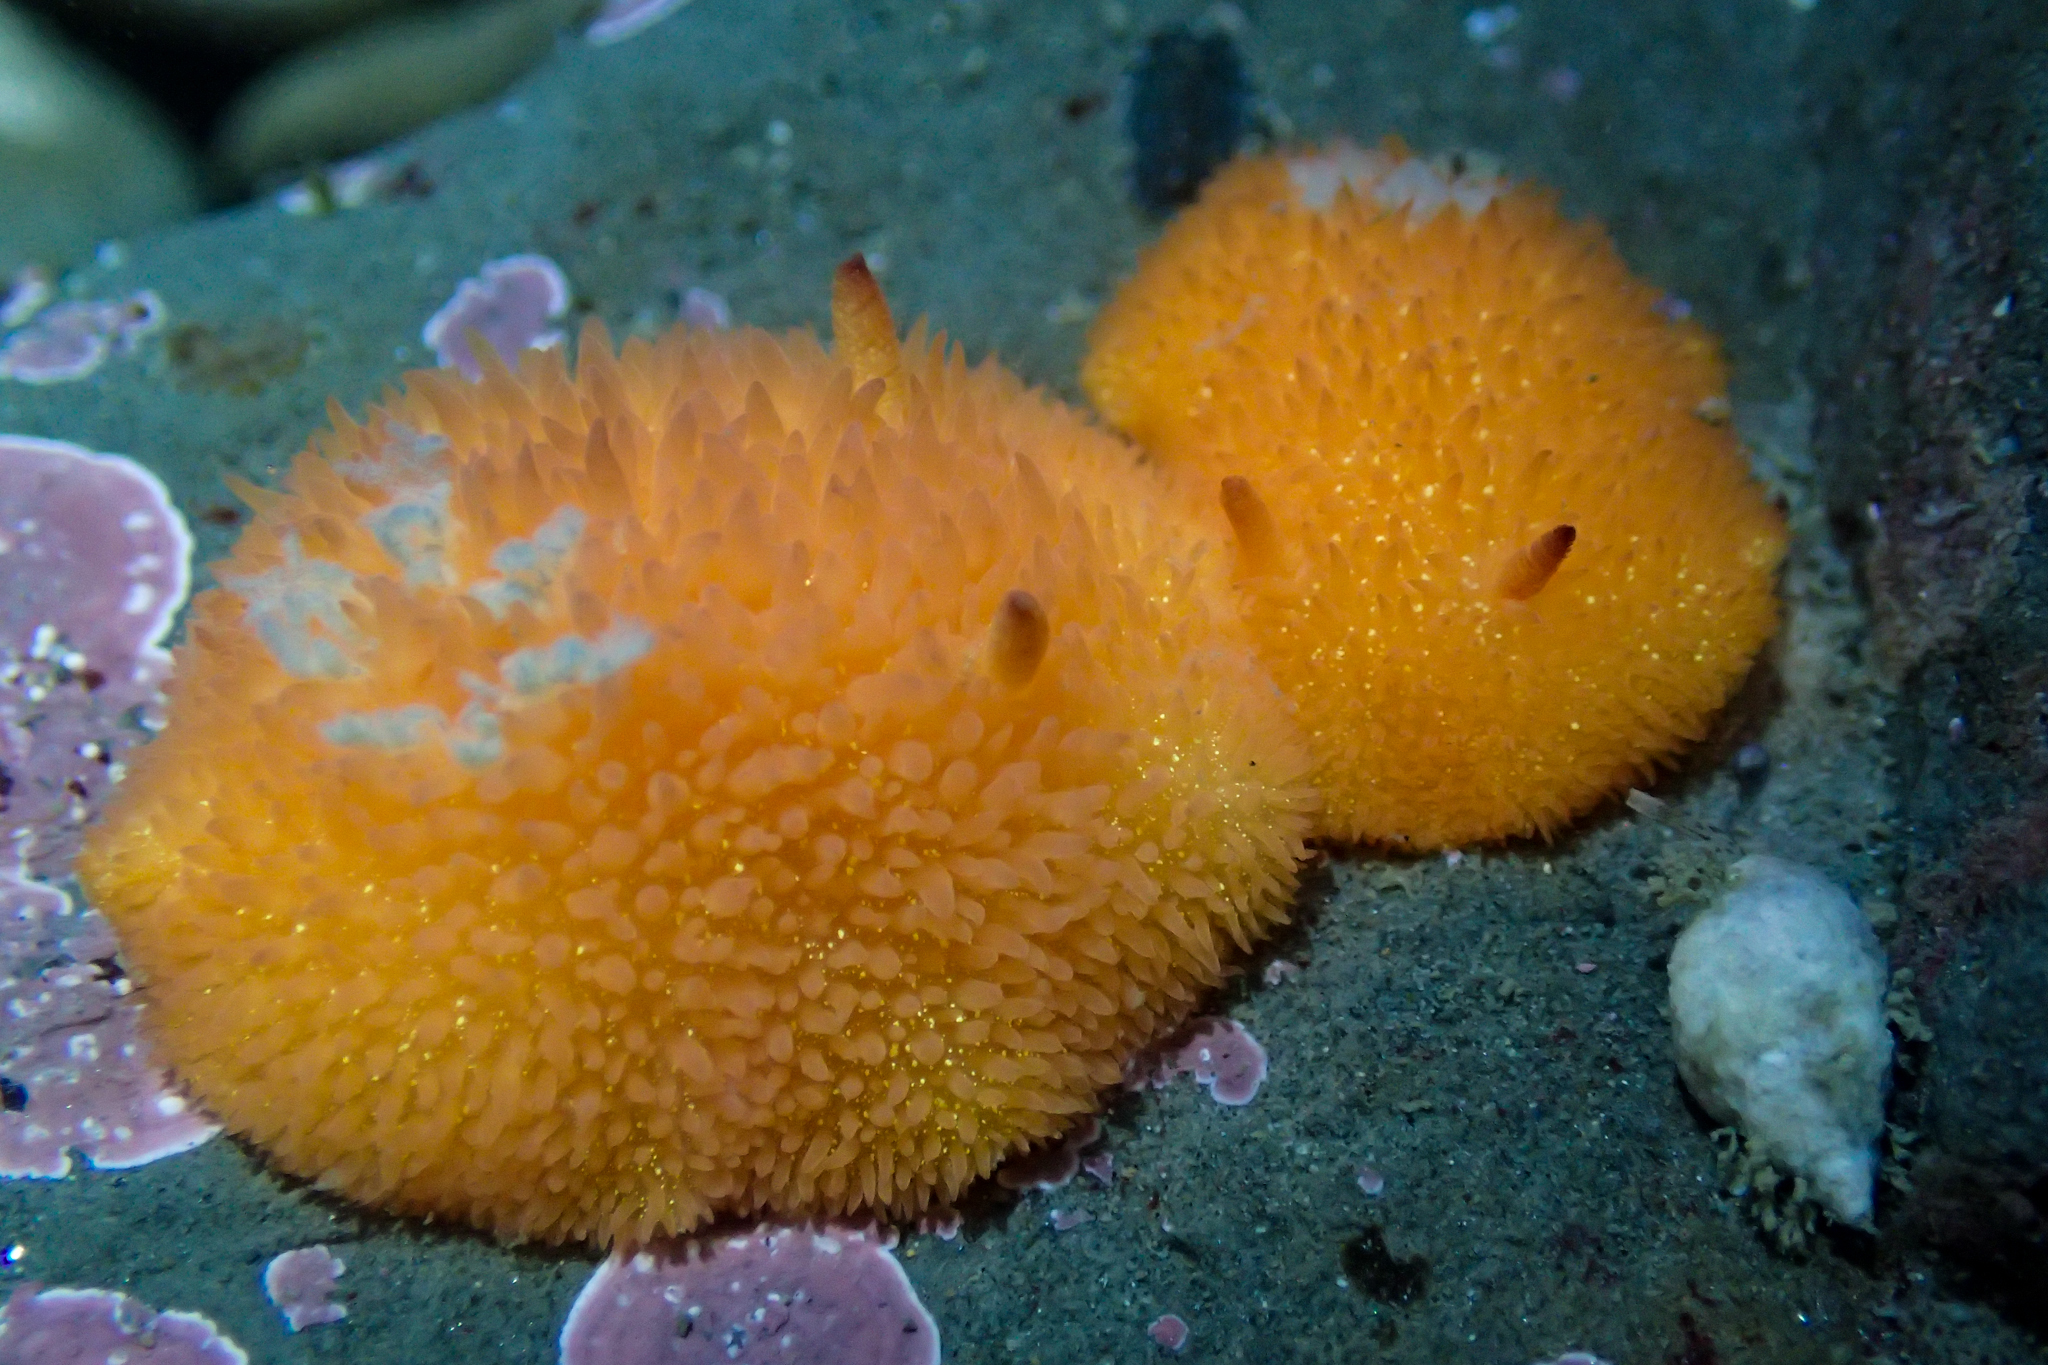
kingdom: Animalia
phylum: Mollusca
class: Gastropoda
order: Nudibranchia
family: Onchidorididae
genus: Acanthodoris
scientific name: Acanthodoris lutea
